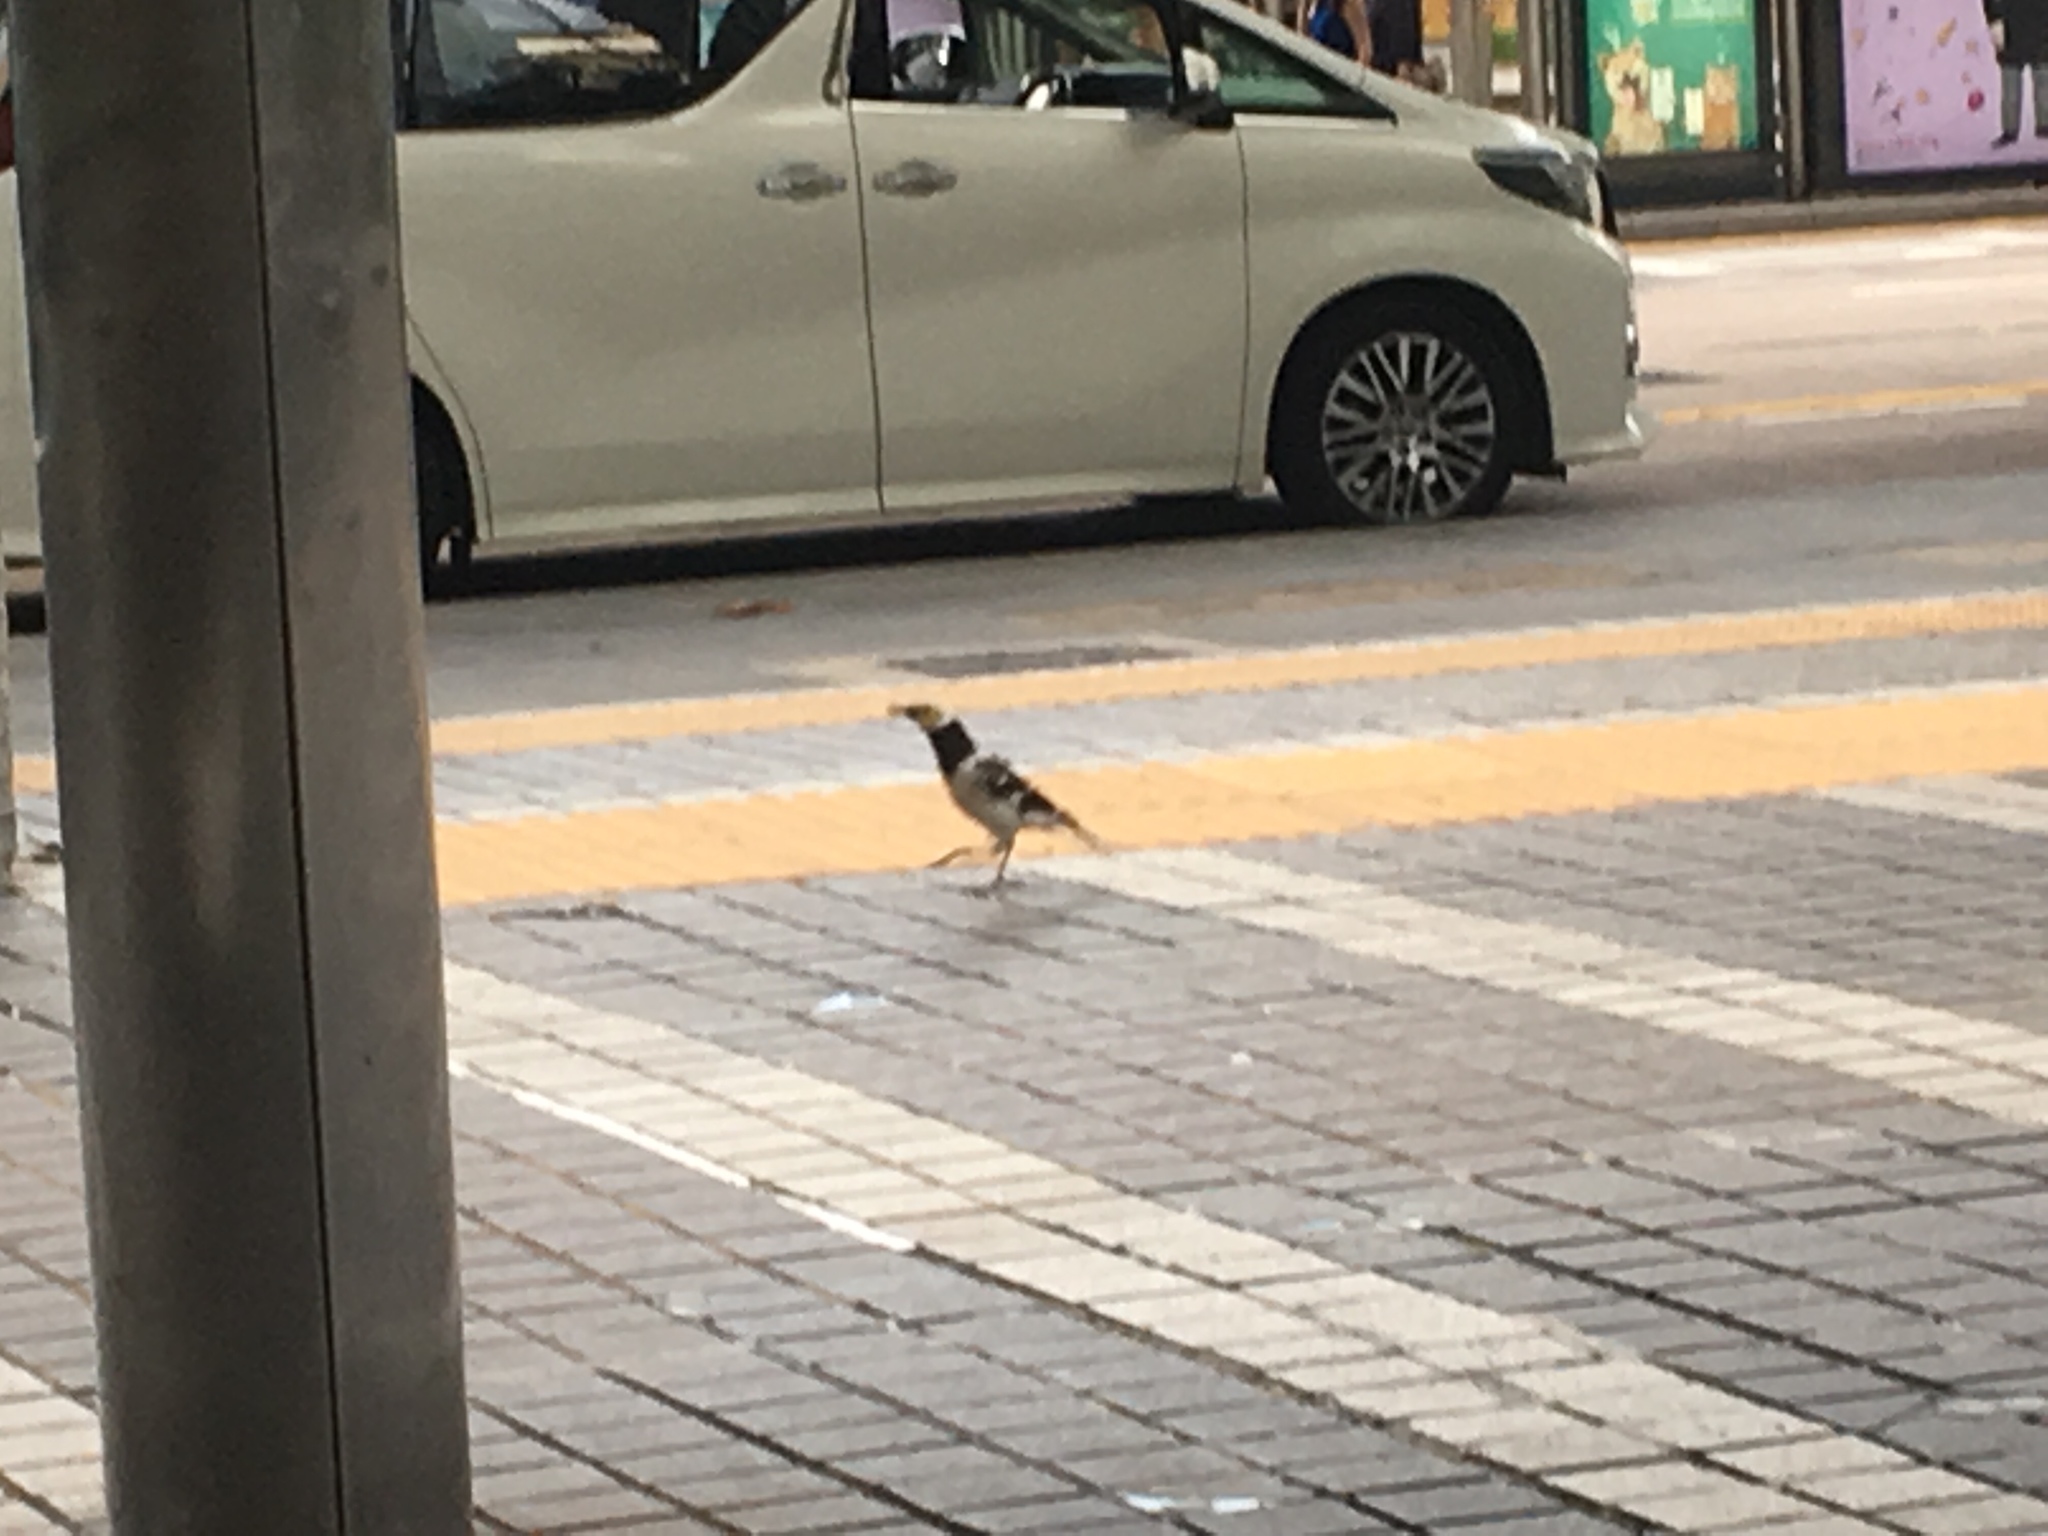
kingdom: Animalia
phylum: Chordata
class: Aves
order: Passeriformes
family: Sturnidae
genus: Gracupica
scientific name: Gracupica nigricollis
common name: Black-collared starling
